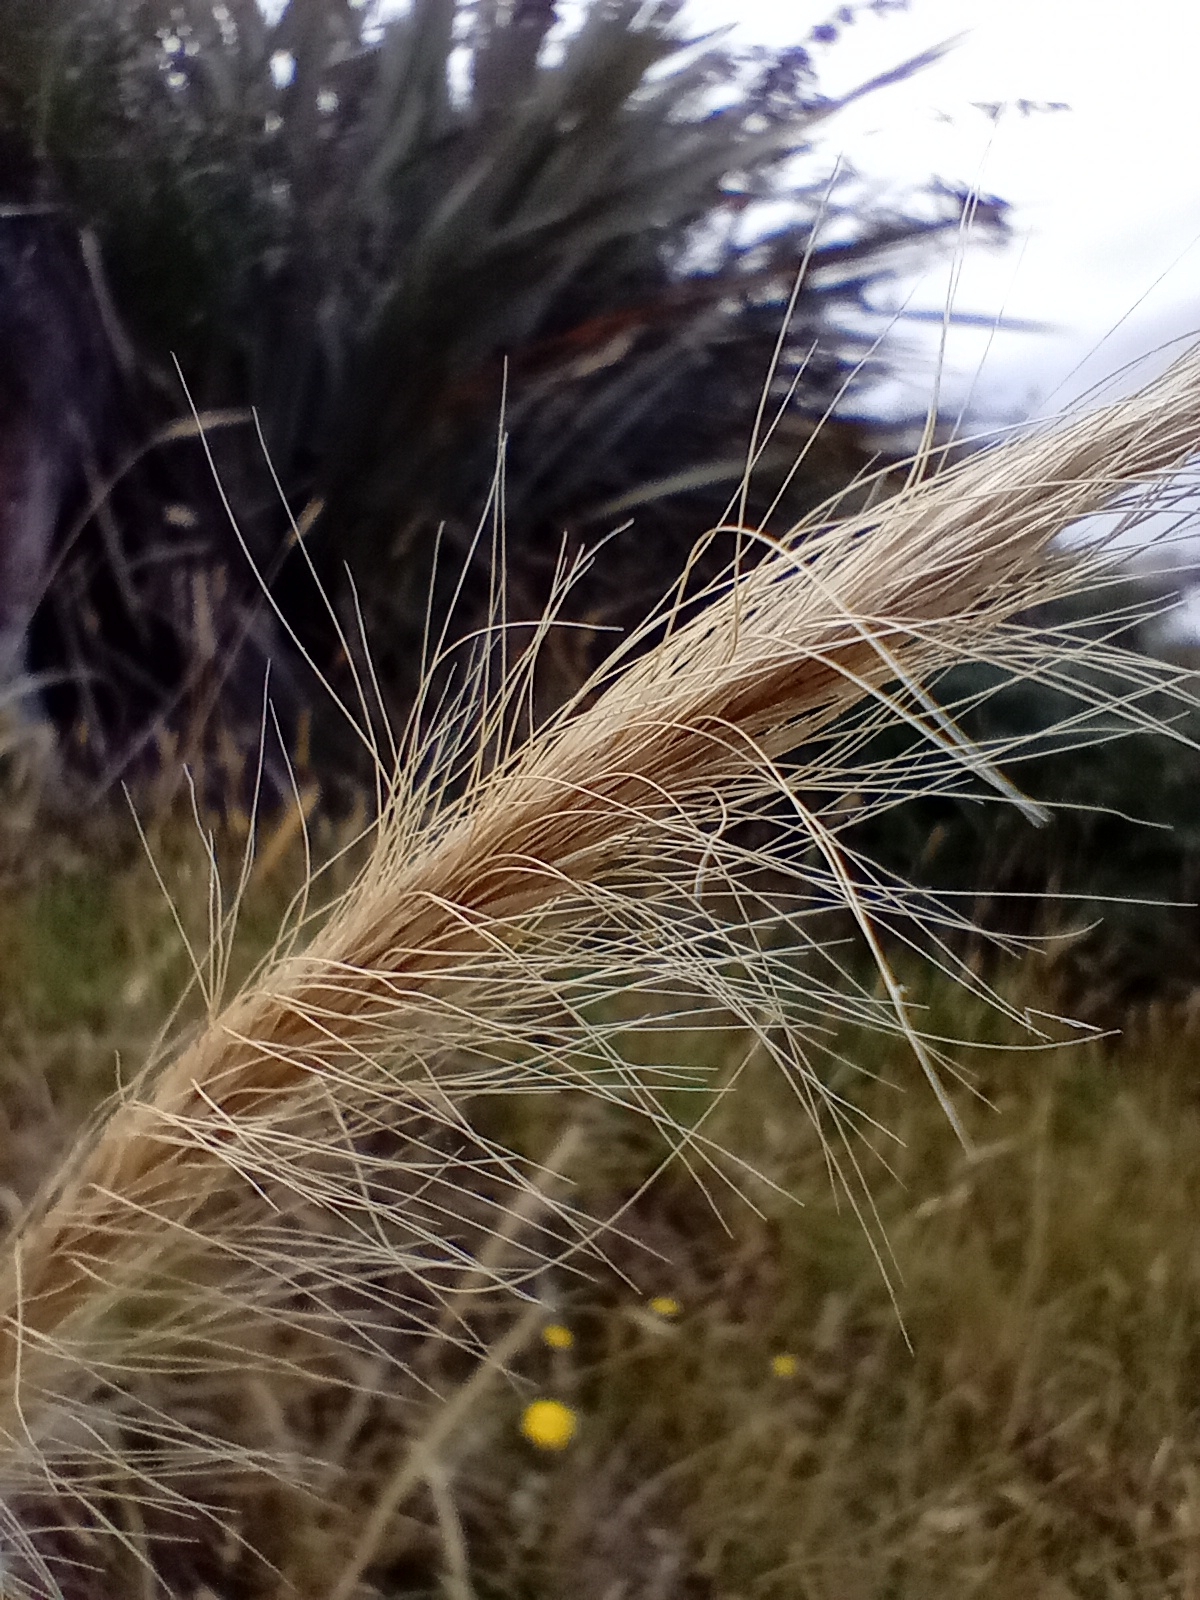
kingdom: Plantae
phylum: Tracheophyta
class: Liliopsida
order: Poales
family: Poaceae
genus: Dichelachne
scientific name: Dichelachne crinita
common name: Clovenfoot plumegrass
